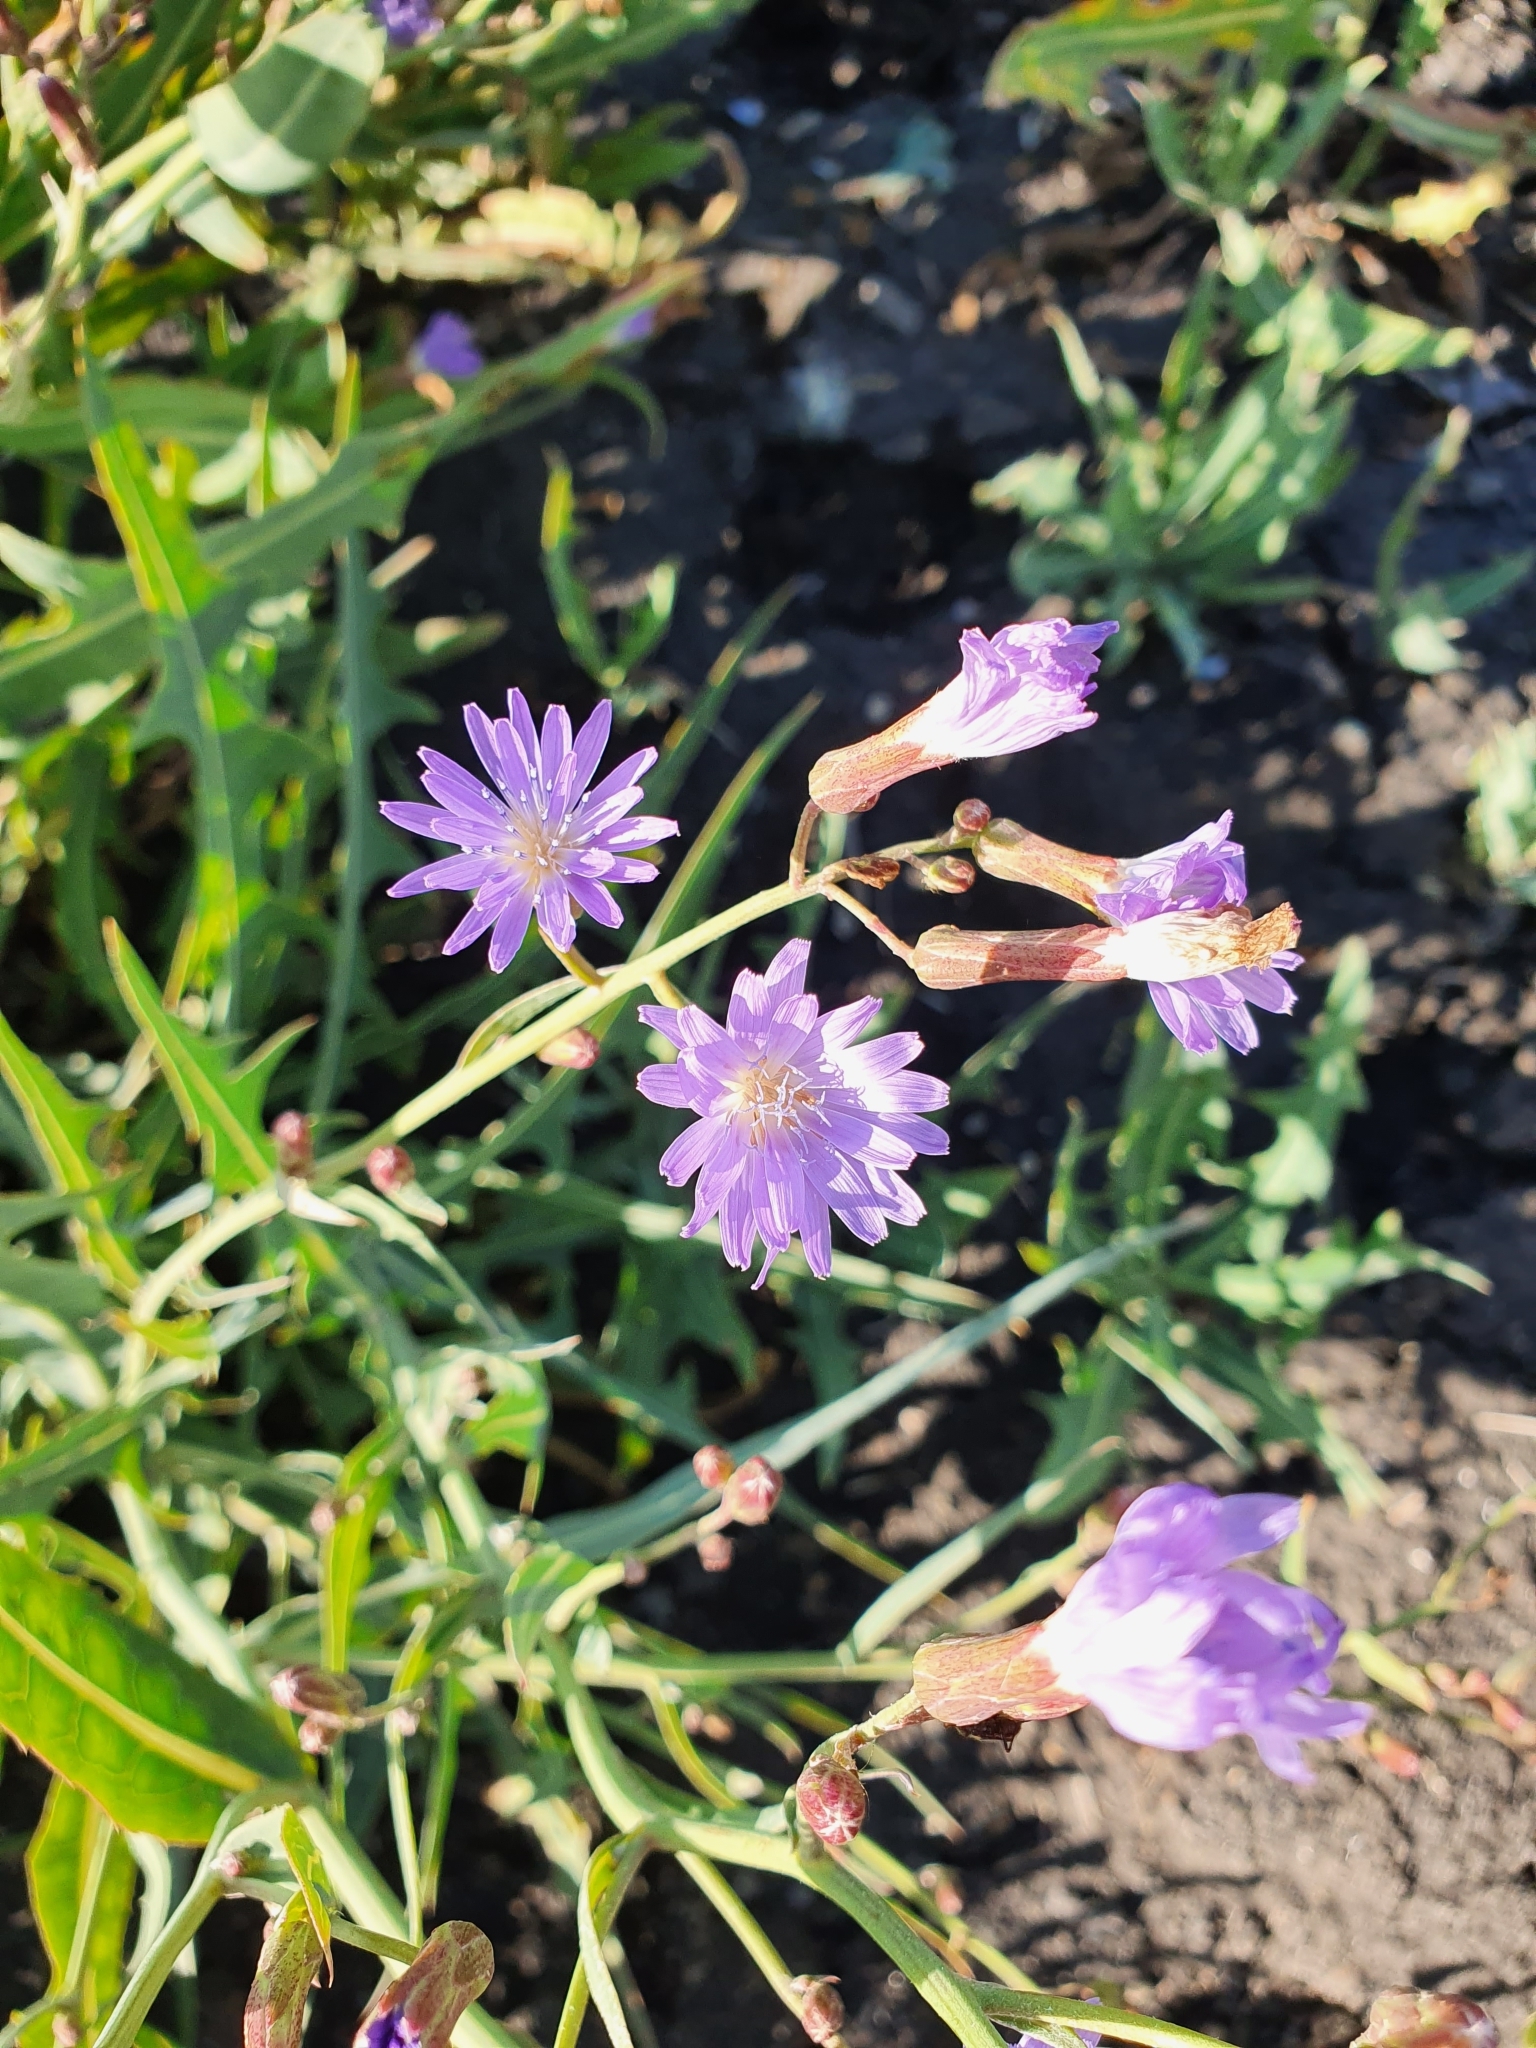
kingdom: Plantae
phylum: Tracheophyta
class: Magnoliopsida
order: Asterales
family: Asteraceae
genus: Lactuca
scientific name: Lactuca tatarica
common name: Blue lettuce
